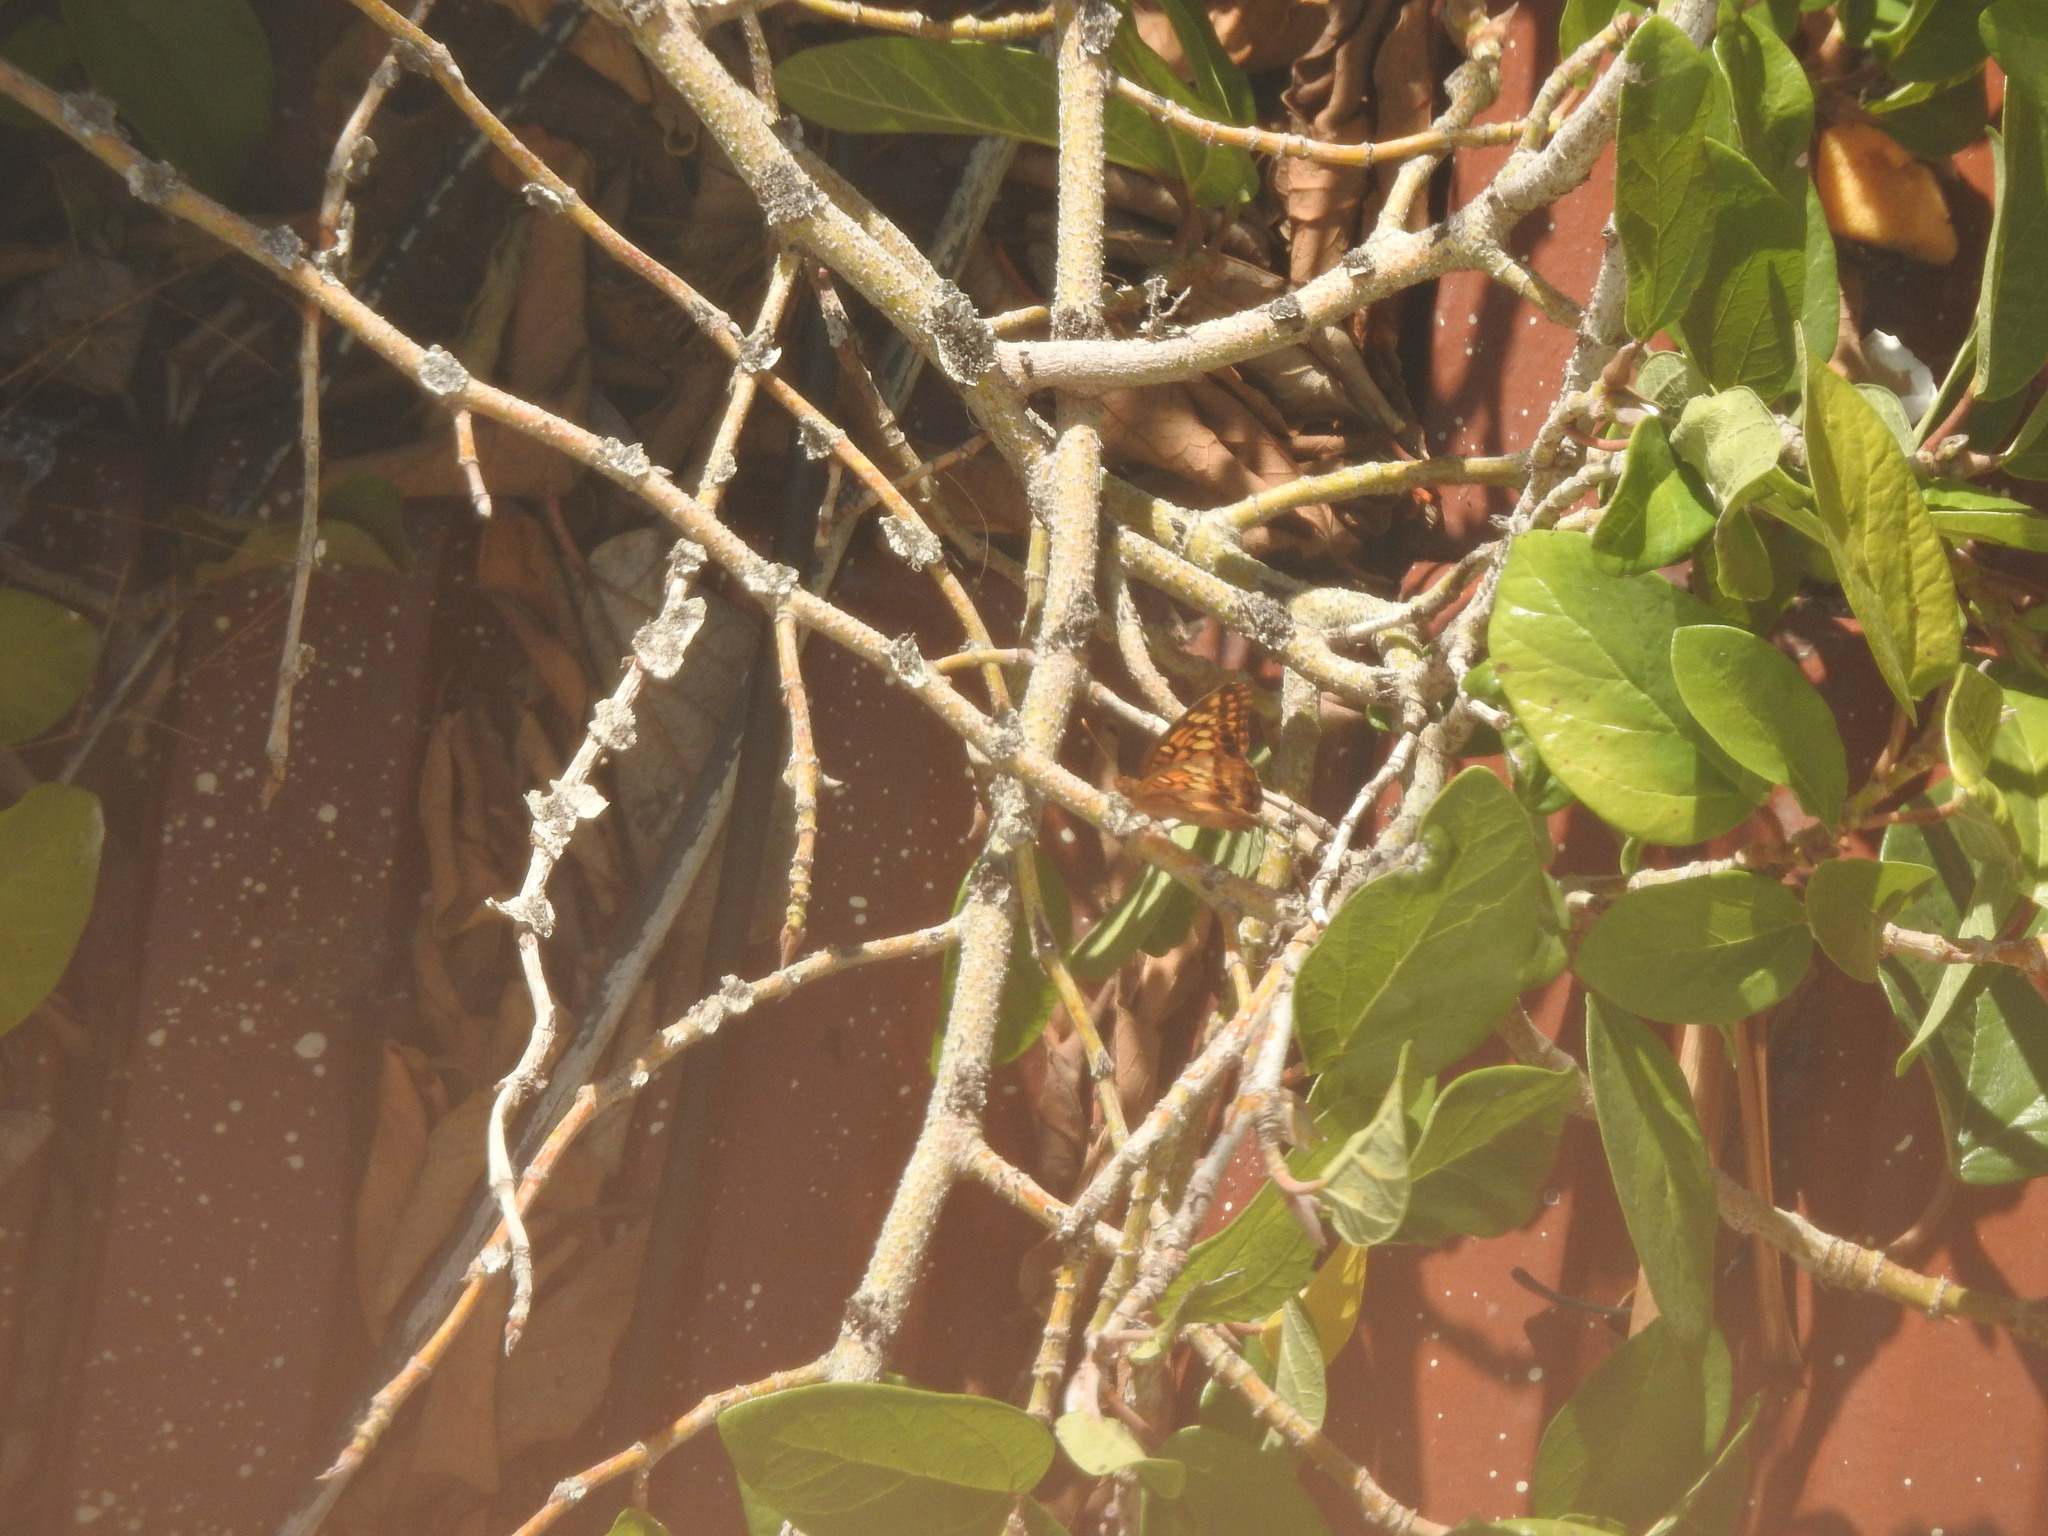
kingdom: Animalia
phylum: Arthropoda
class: Insecta
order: Lepidoptera
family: Nymphalidae
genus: Euptoieta
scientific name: Euptoieta hortensia
